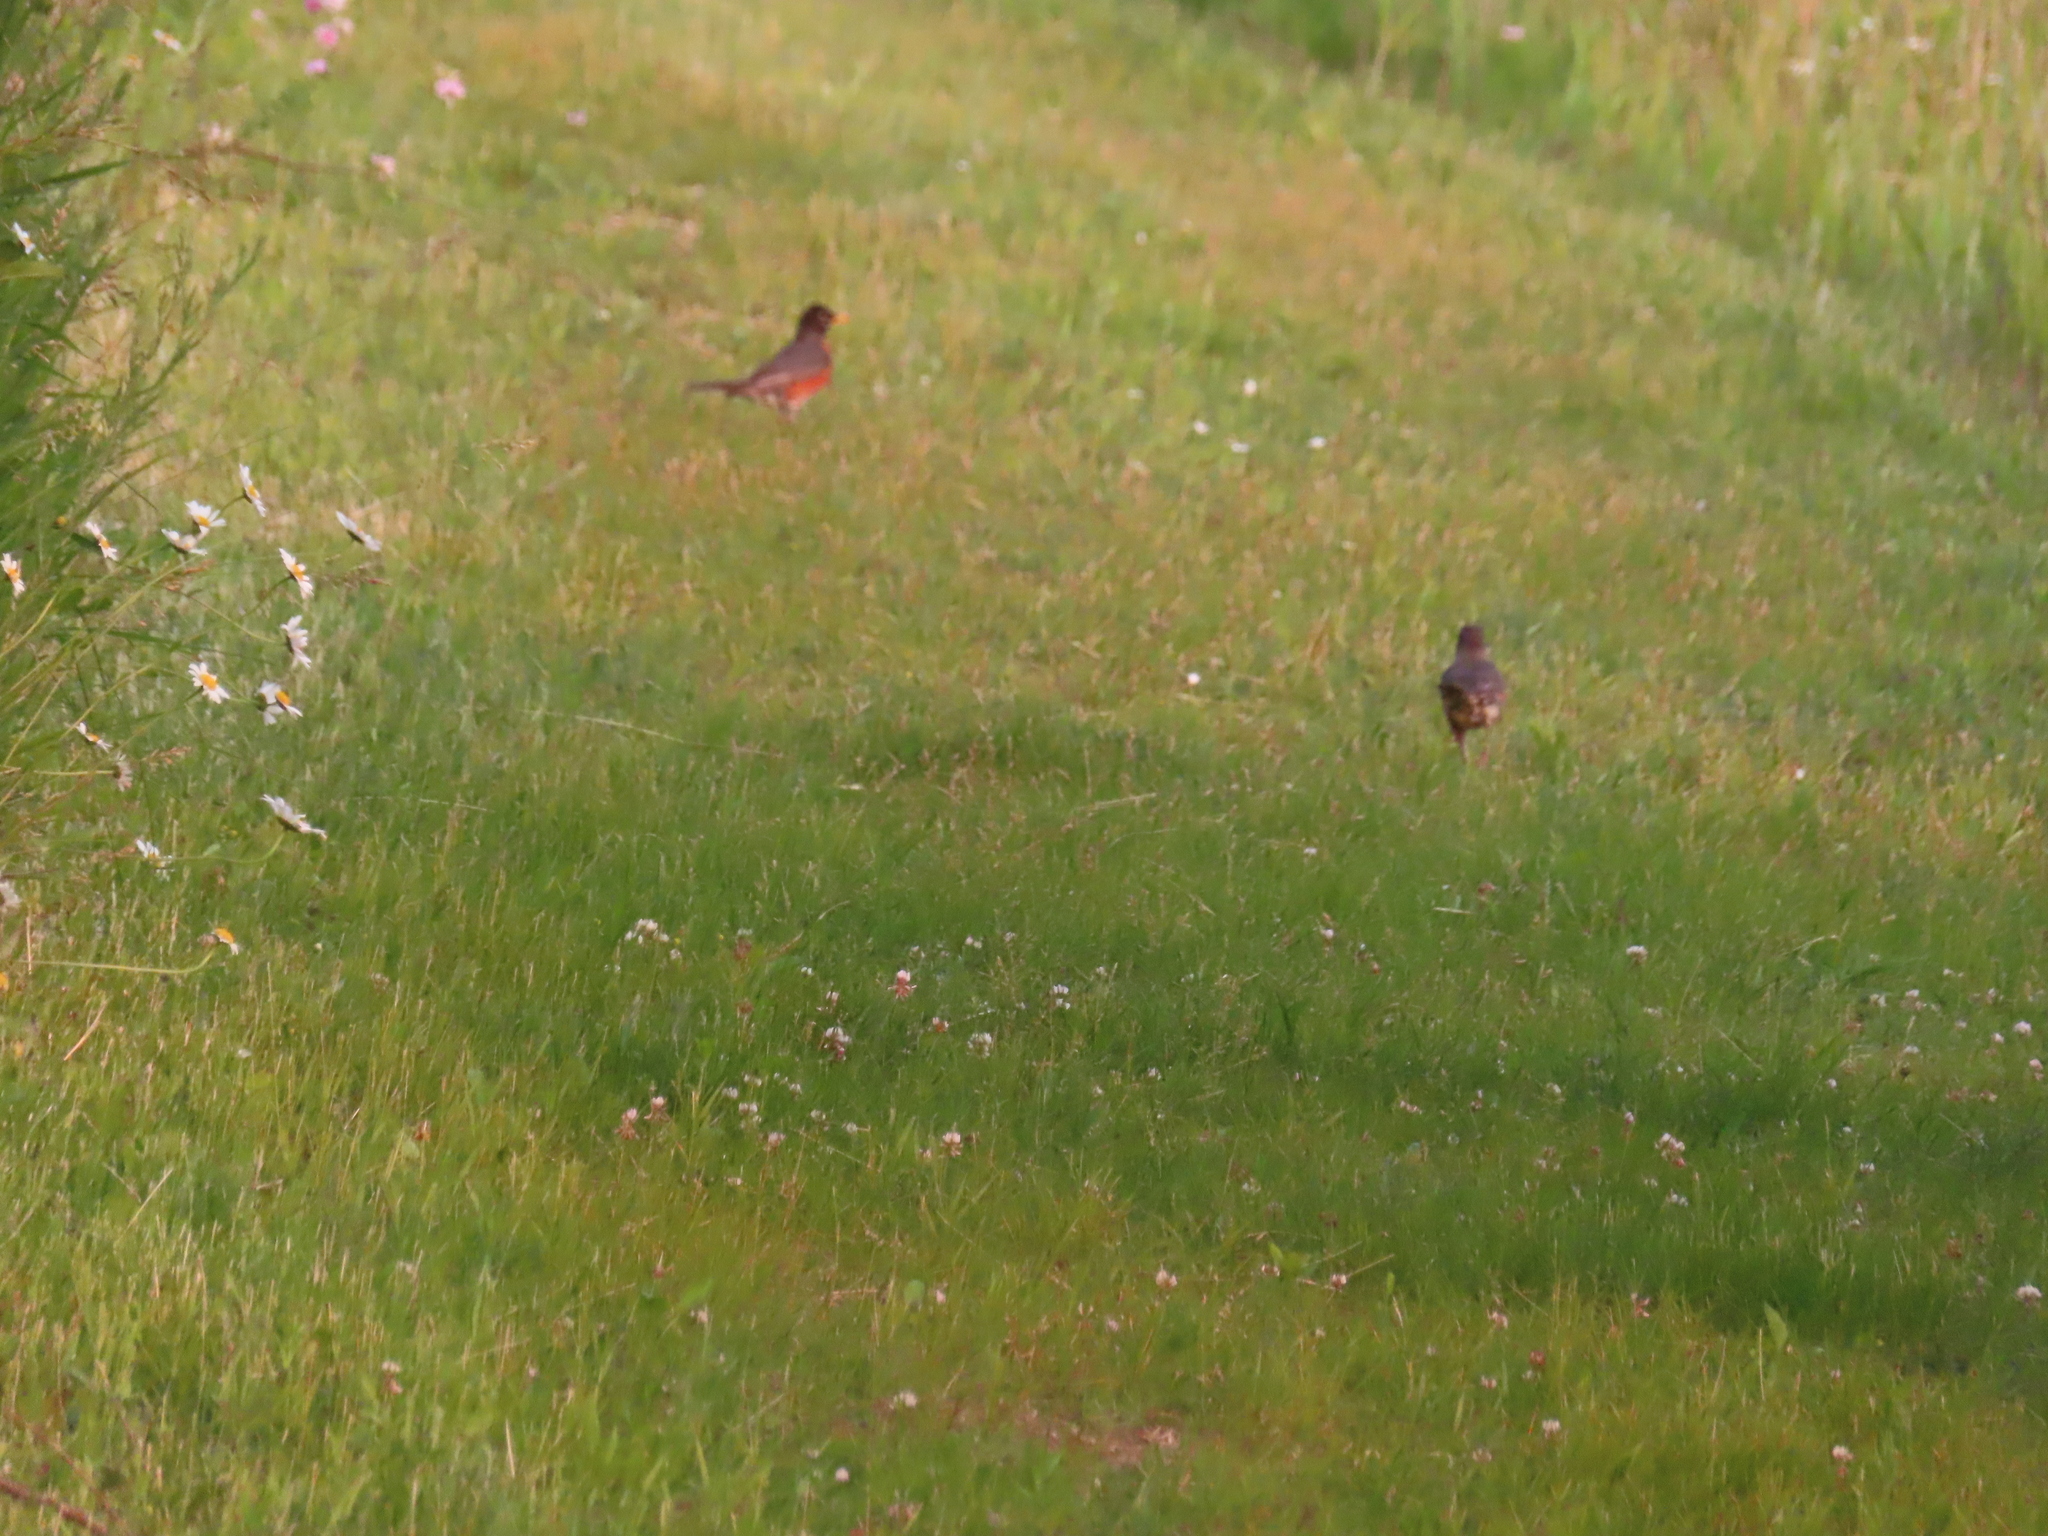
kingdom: Animalia
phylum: Chordata
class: Aves
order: Passeriformes
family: Turdidae
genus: Turdus
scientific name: Turdus migratorius
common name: American robin
